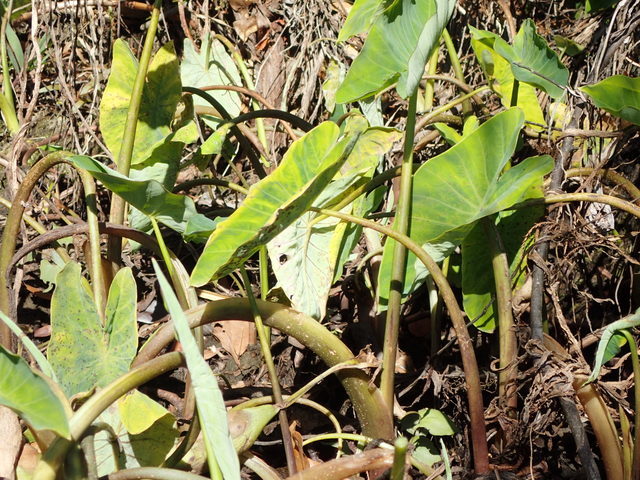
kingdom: Plantae
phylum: Tracheophyta
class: Liliopsida
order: Alismatales
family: Araceae
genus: Colocasia
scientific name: Colocasia esculenta
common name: Taro
